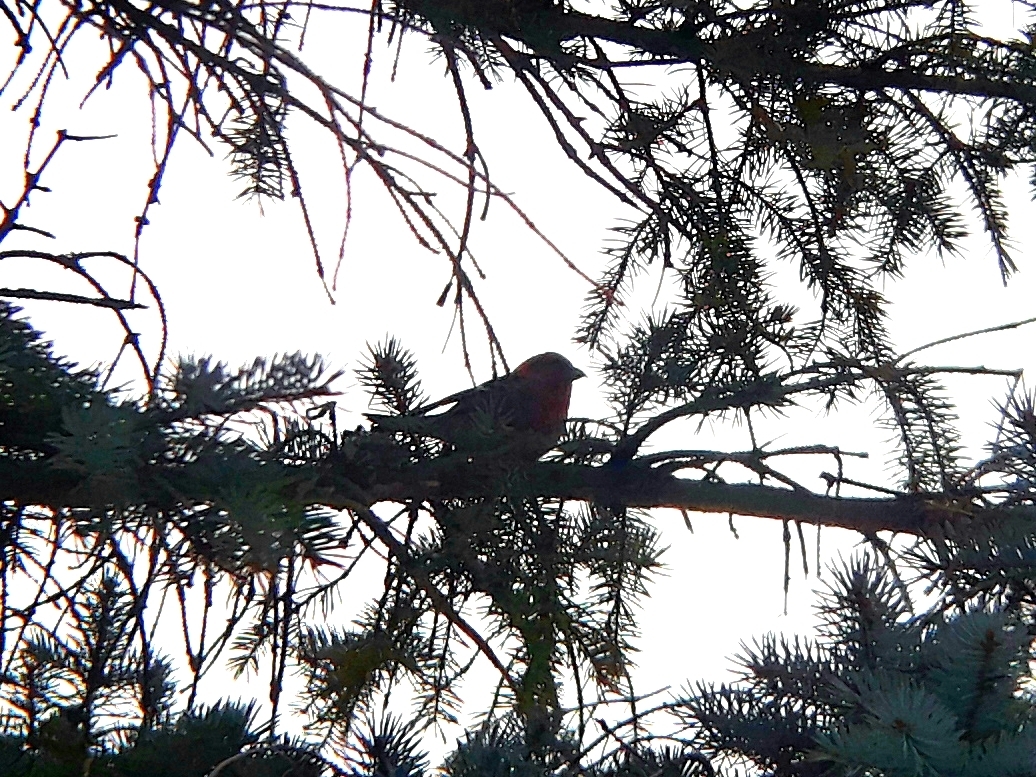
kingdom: Animalia
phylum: Chordata
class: Aves
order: Passeriformes
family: Fringillidae
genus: Loxia
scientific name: Loxia leucoptera
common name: Two-barred crossbill
